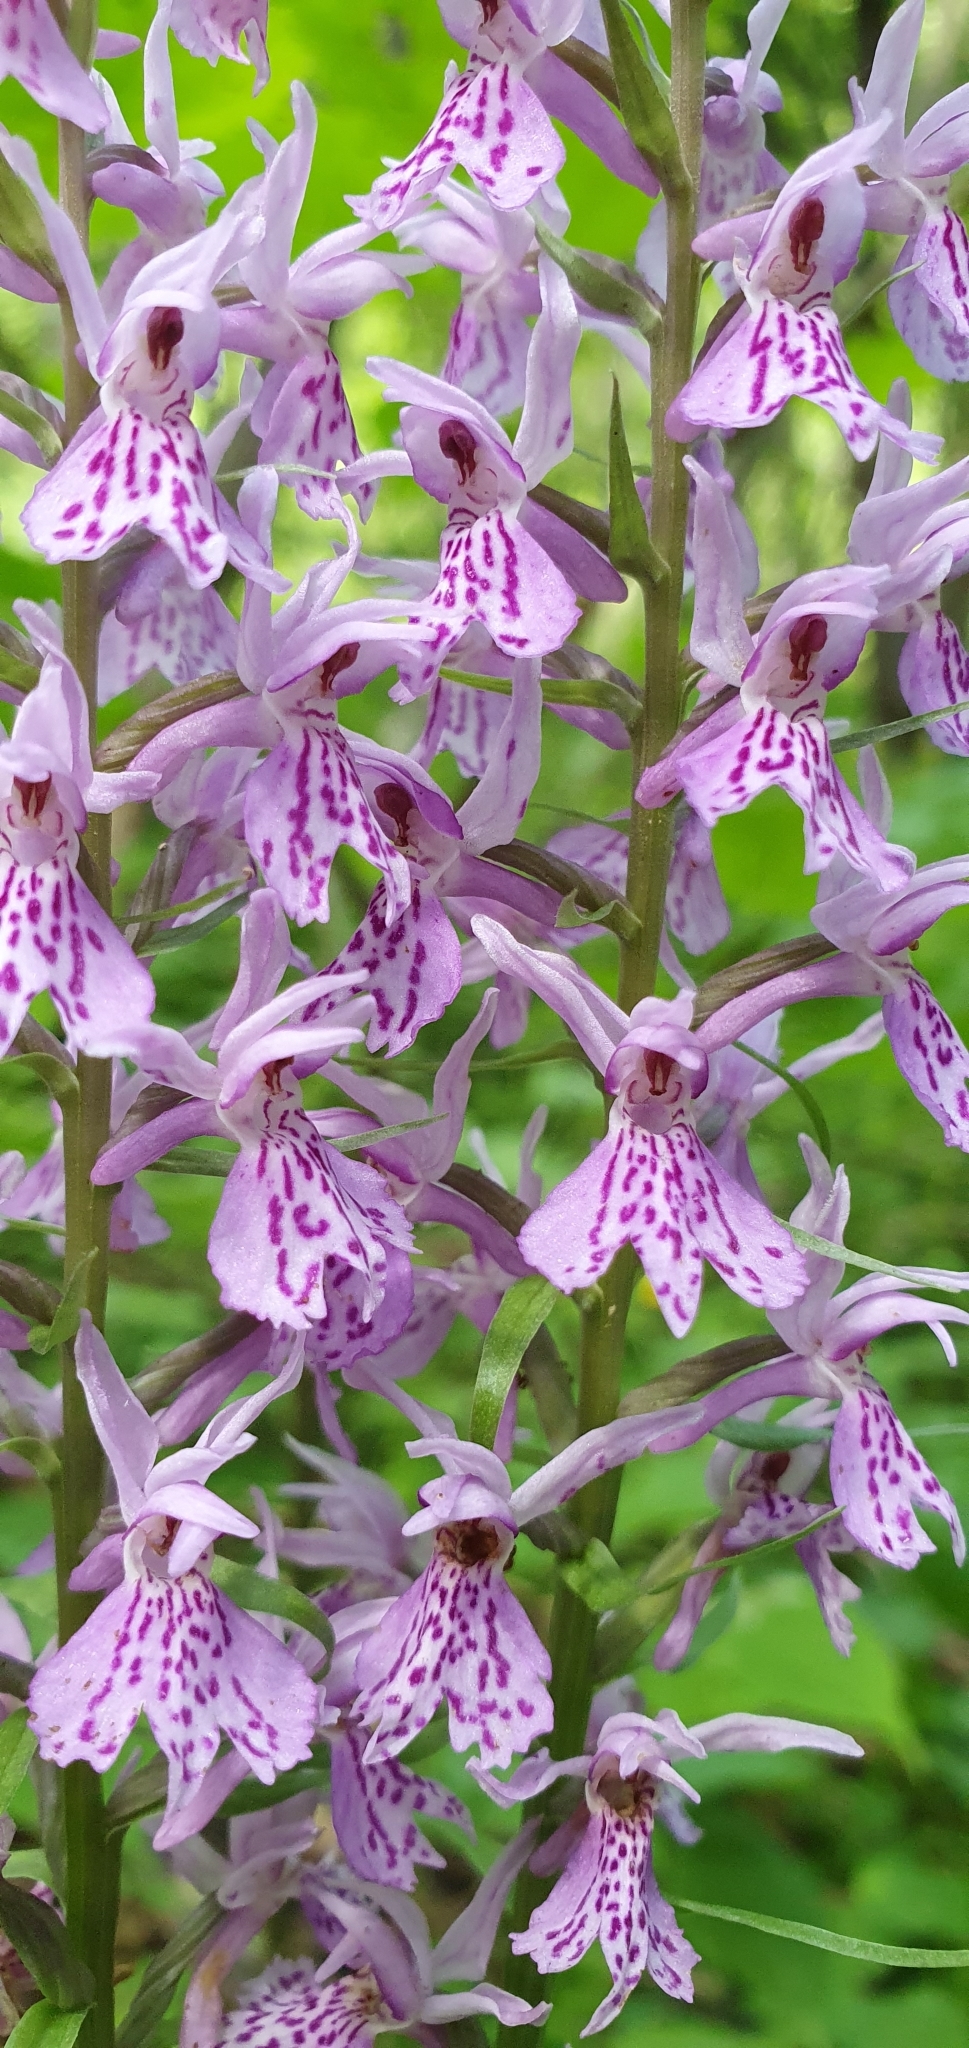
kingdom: Plantae
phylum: Tracheophyta
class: Liliopsida
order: Asparagales
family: Orchidaceae
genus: Dactylorhiza
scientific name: Dactylorhiza maculata
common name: Heath spotted-orchid
